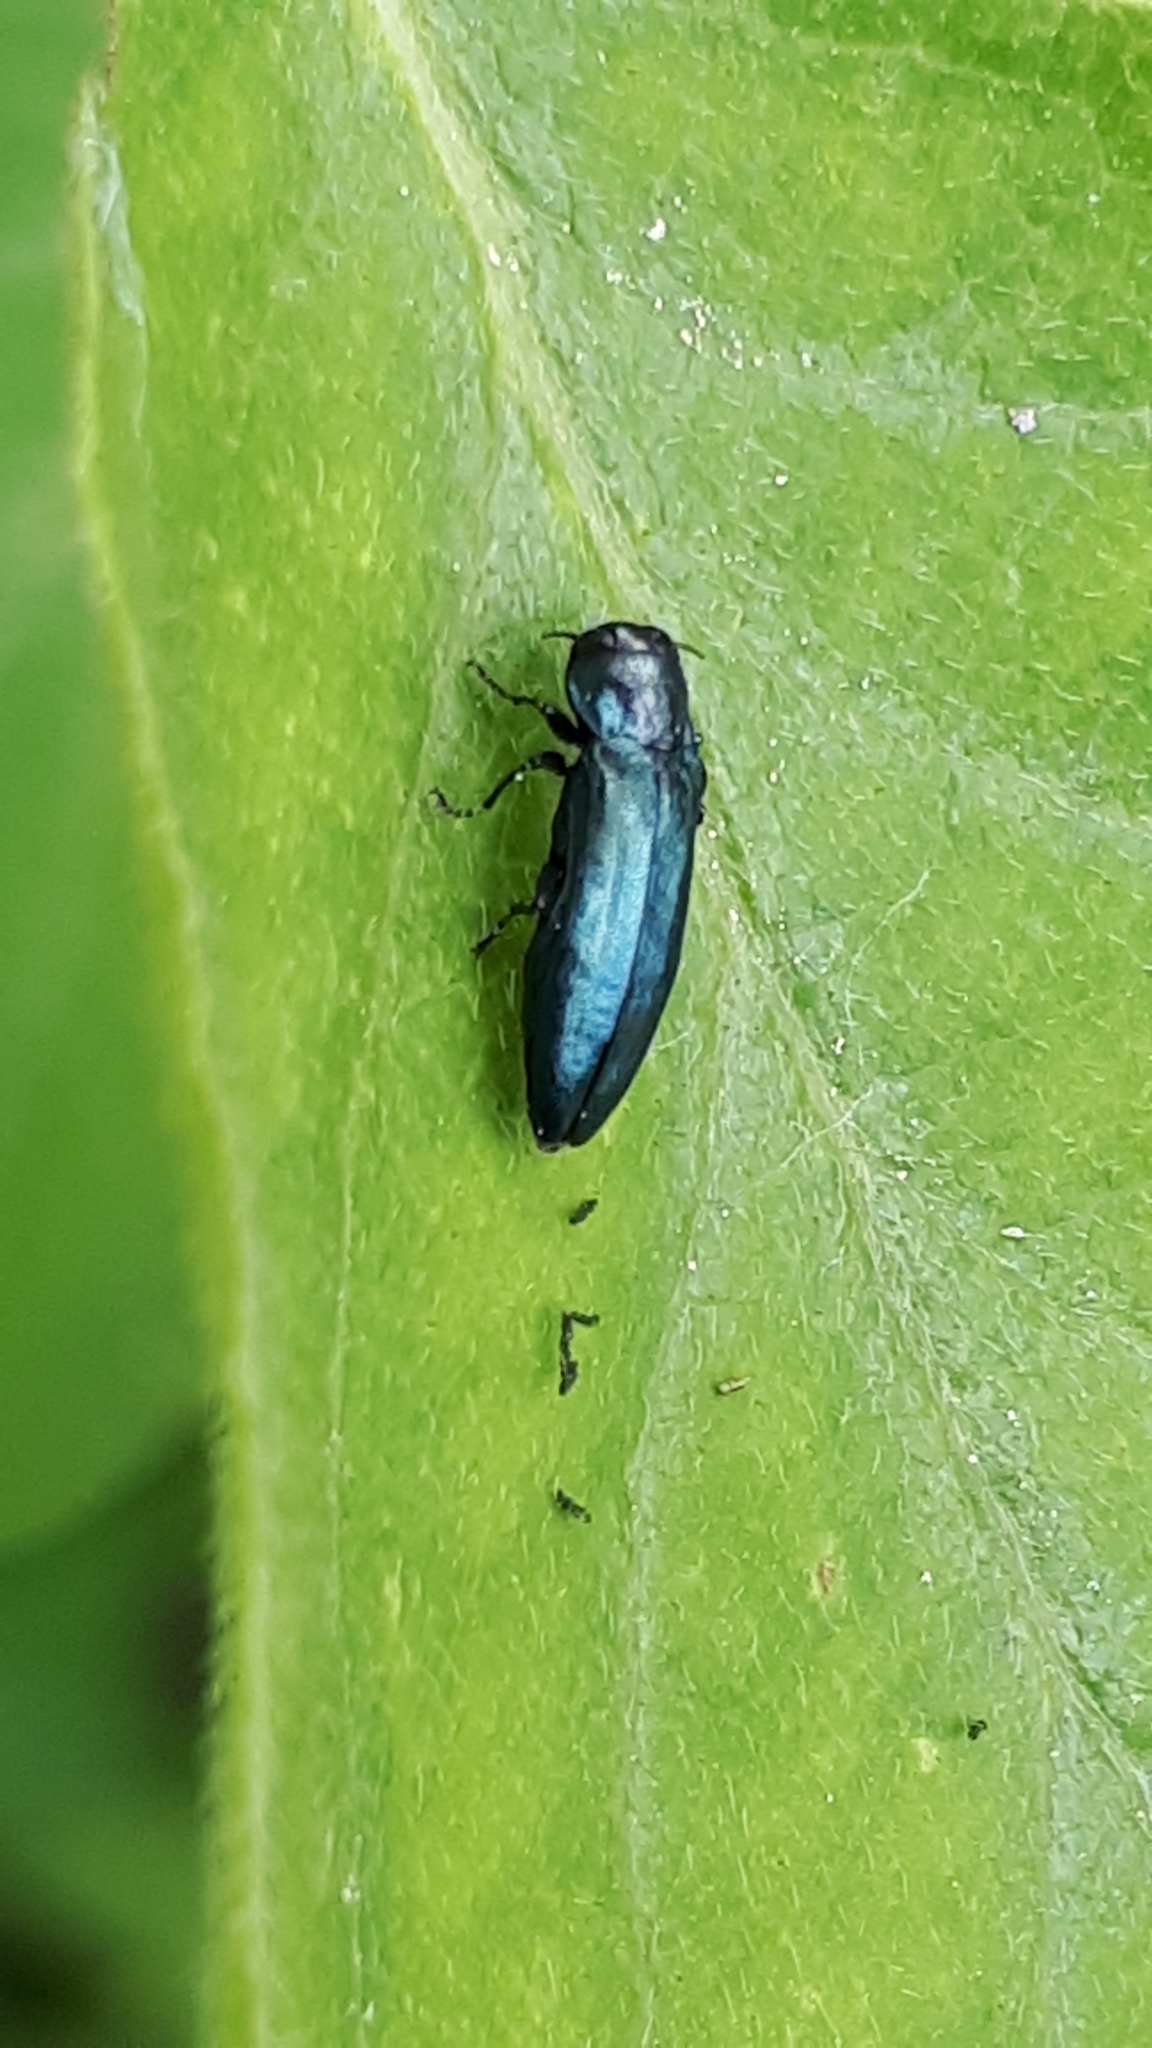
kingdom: Animalia
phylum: Arthropoda
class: Insecta
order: Coleoptera
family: Buprestidae
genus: Agrilus
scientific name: Agrilus cyanescens
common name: Bluish borer beetle
